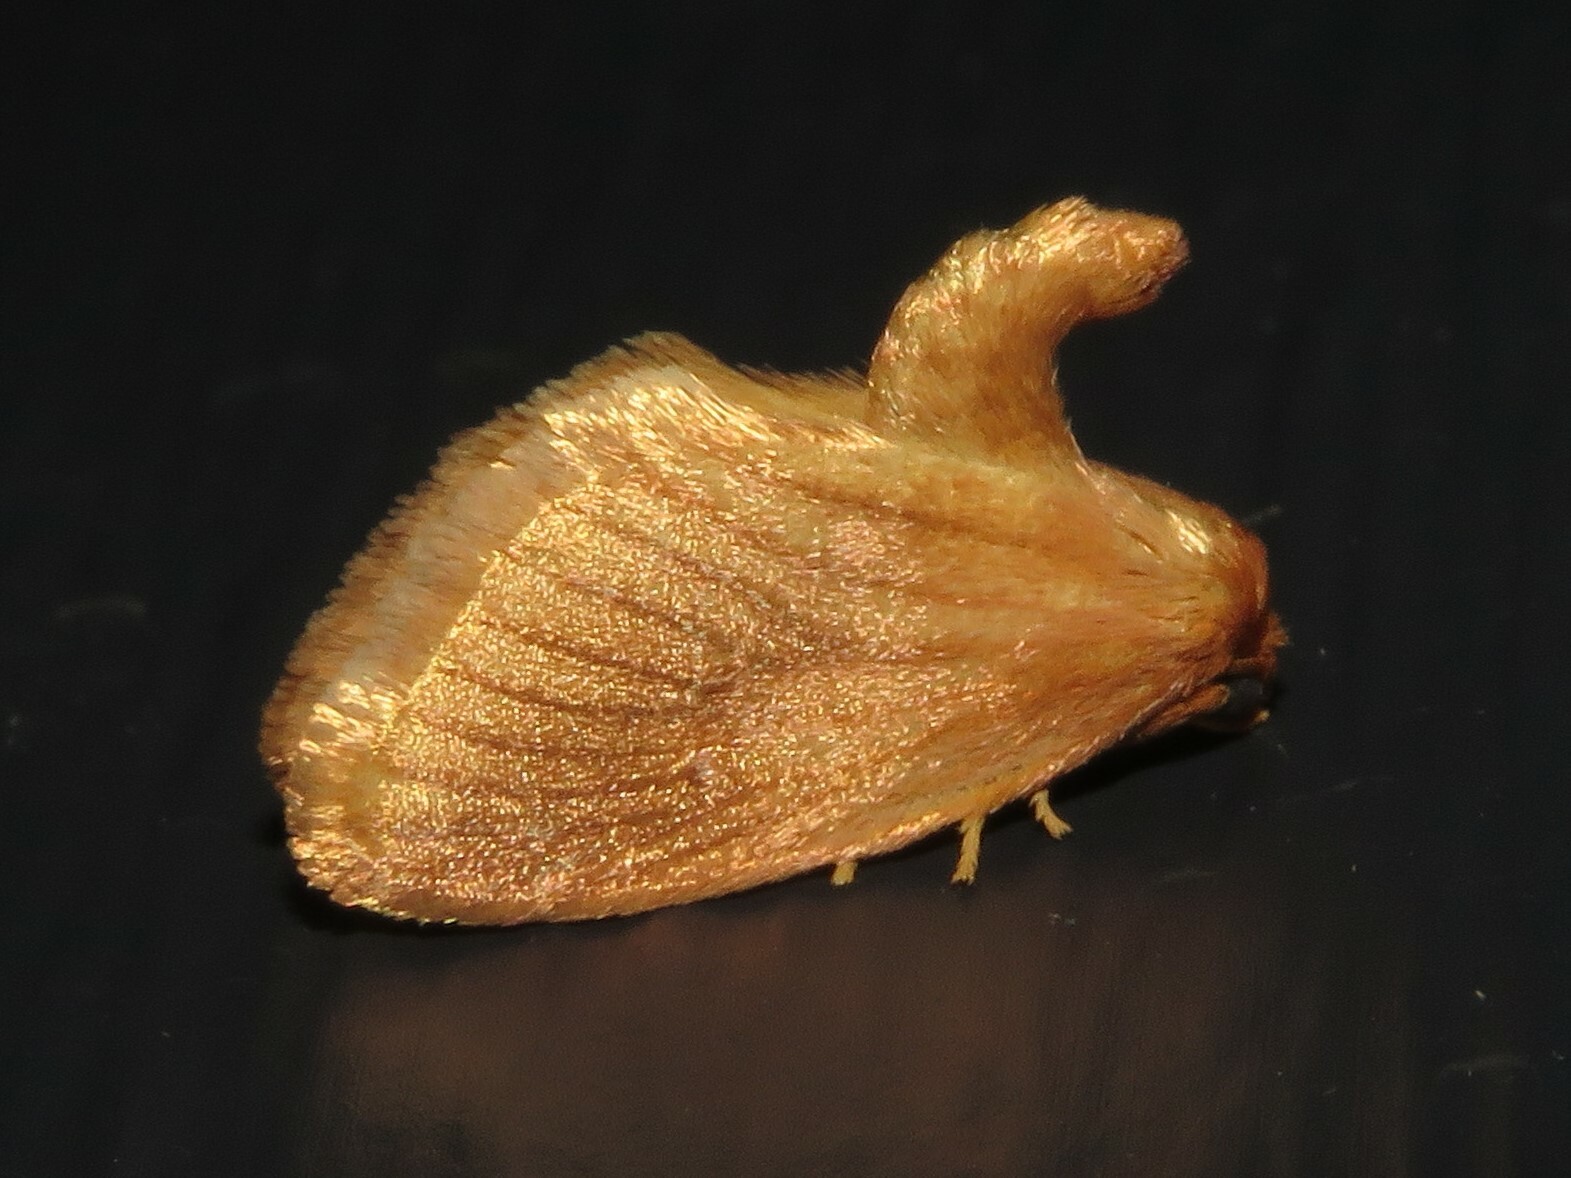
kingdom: Animalia
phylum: Arthropoda
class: Insecta
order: Lepidoptera
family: Limacodidae
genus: Tortricidia
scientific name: Tortricidia testacea
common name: Early button slug moth
